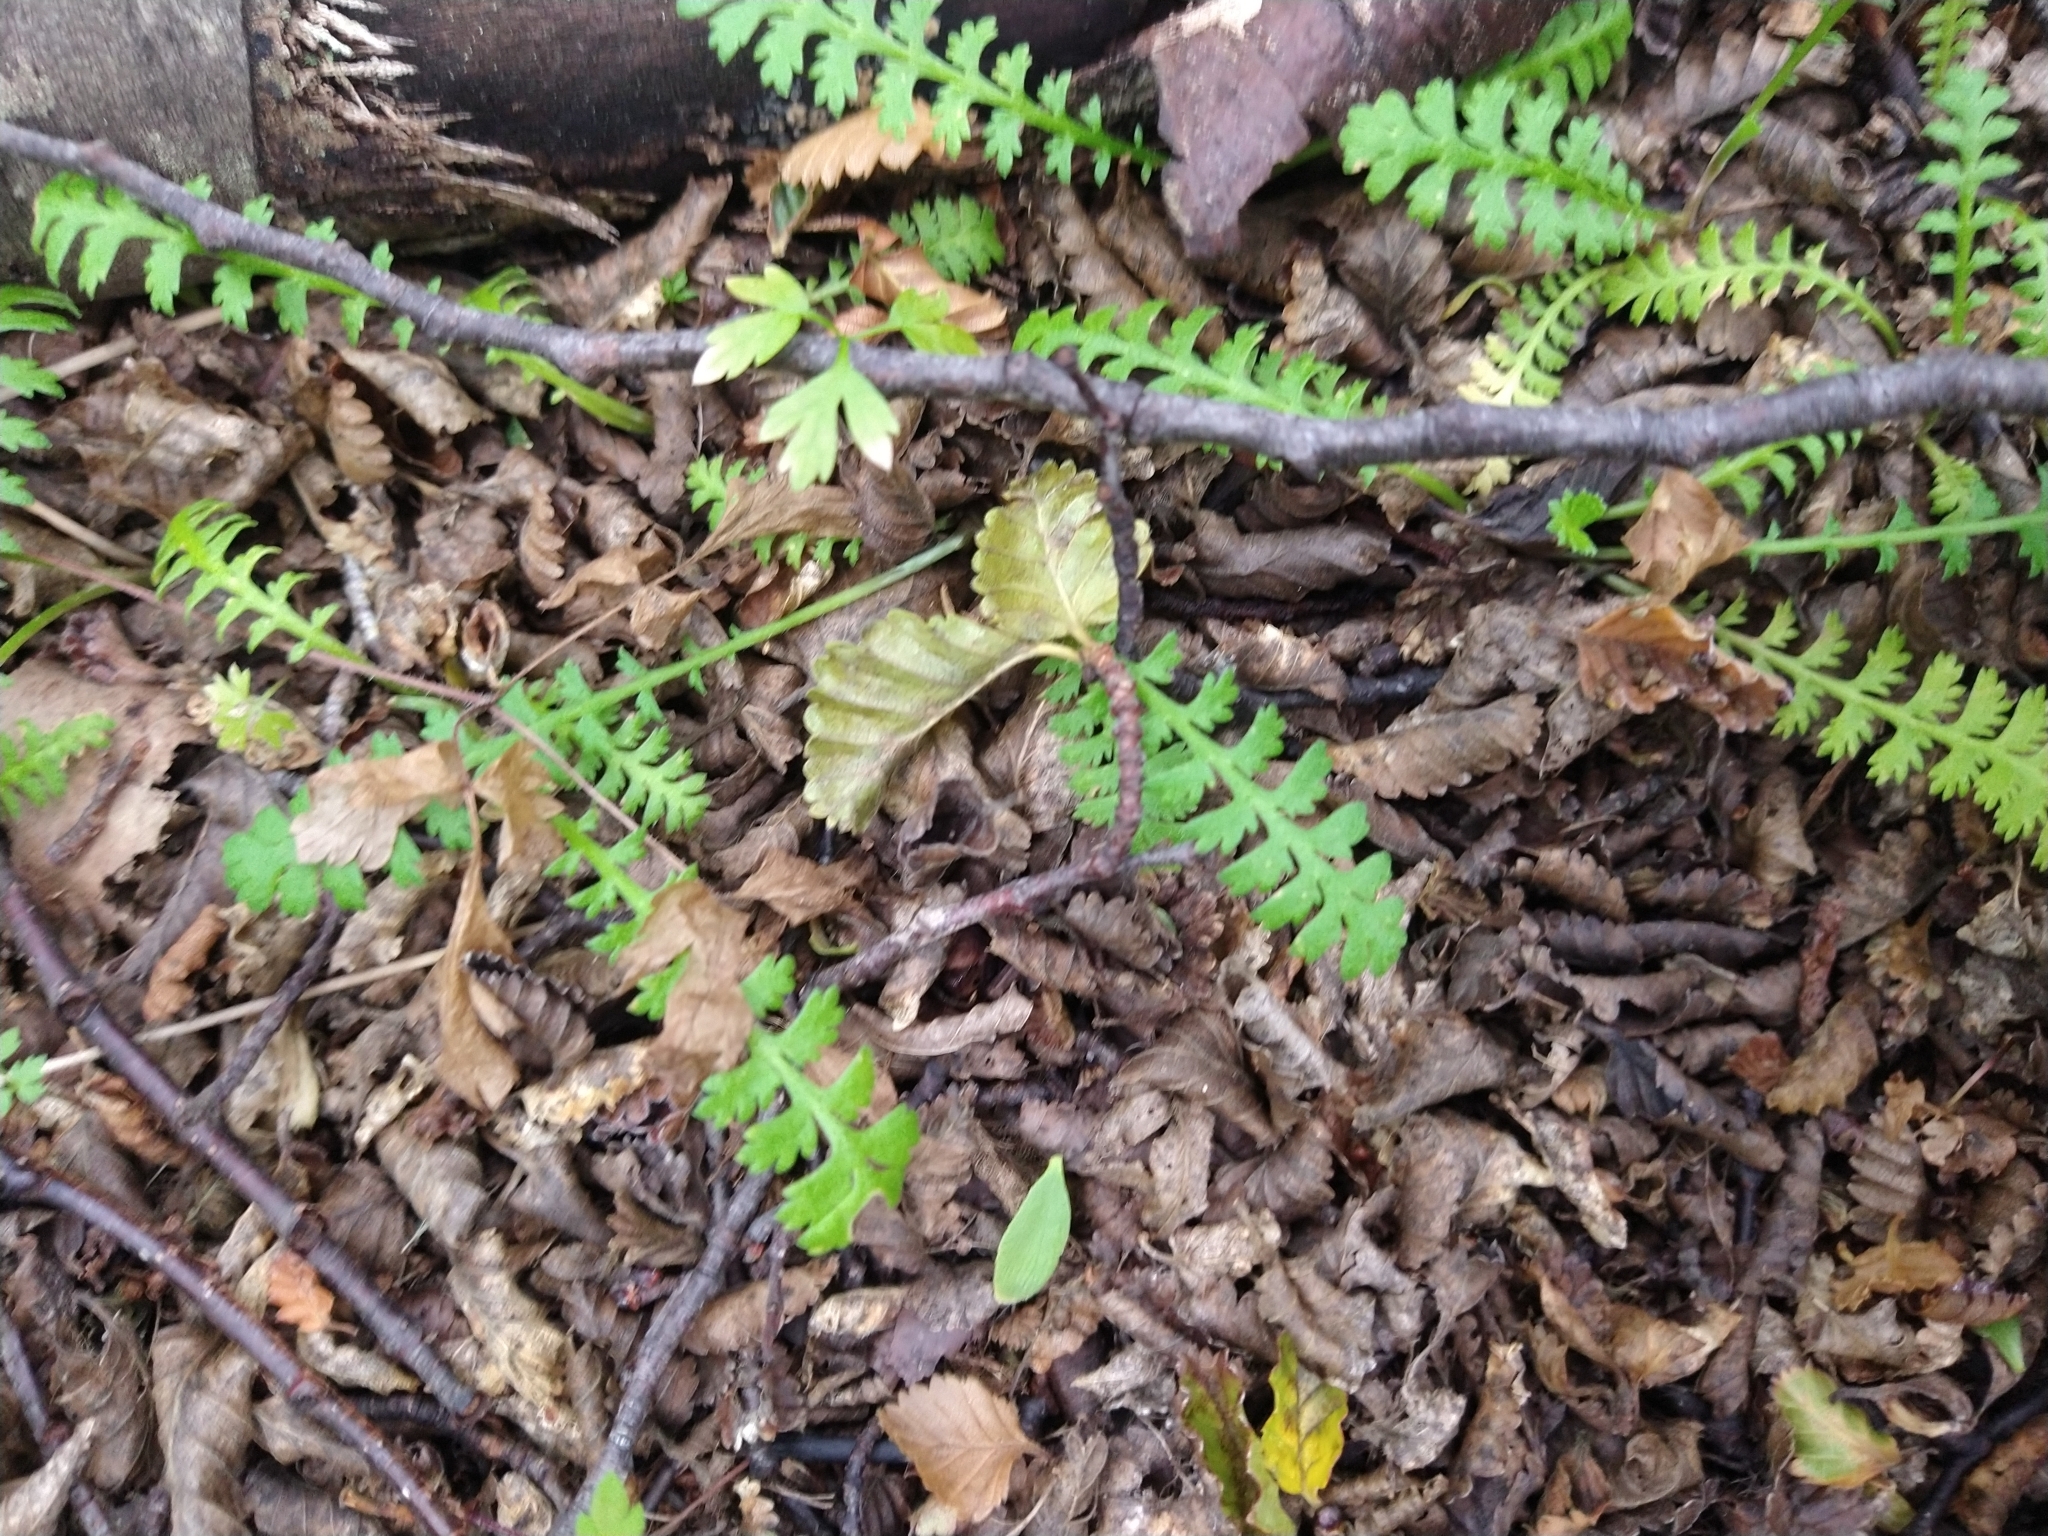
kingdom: Plantae
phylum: Tracheophyta
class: Magnoliopsida
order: Asterales
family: Asteraceae
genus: Leptinella
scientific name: Leptinella scariosa
